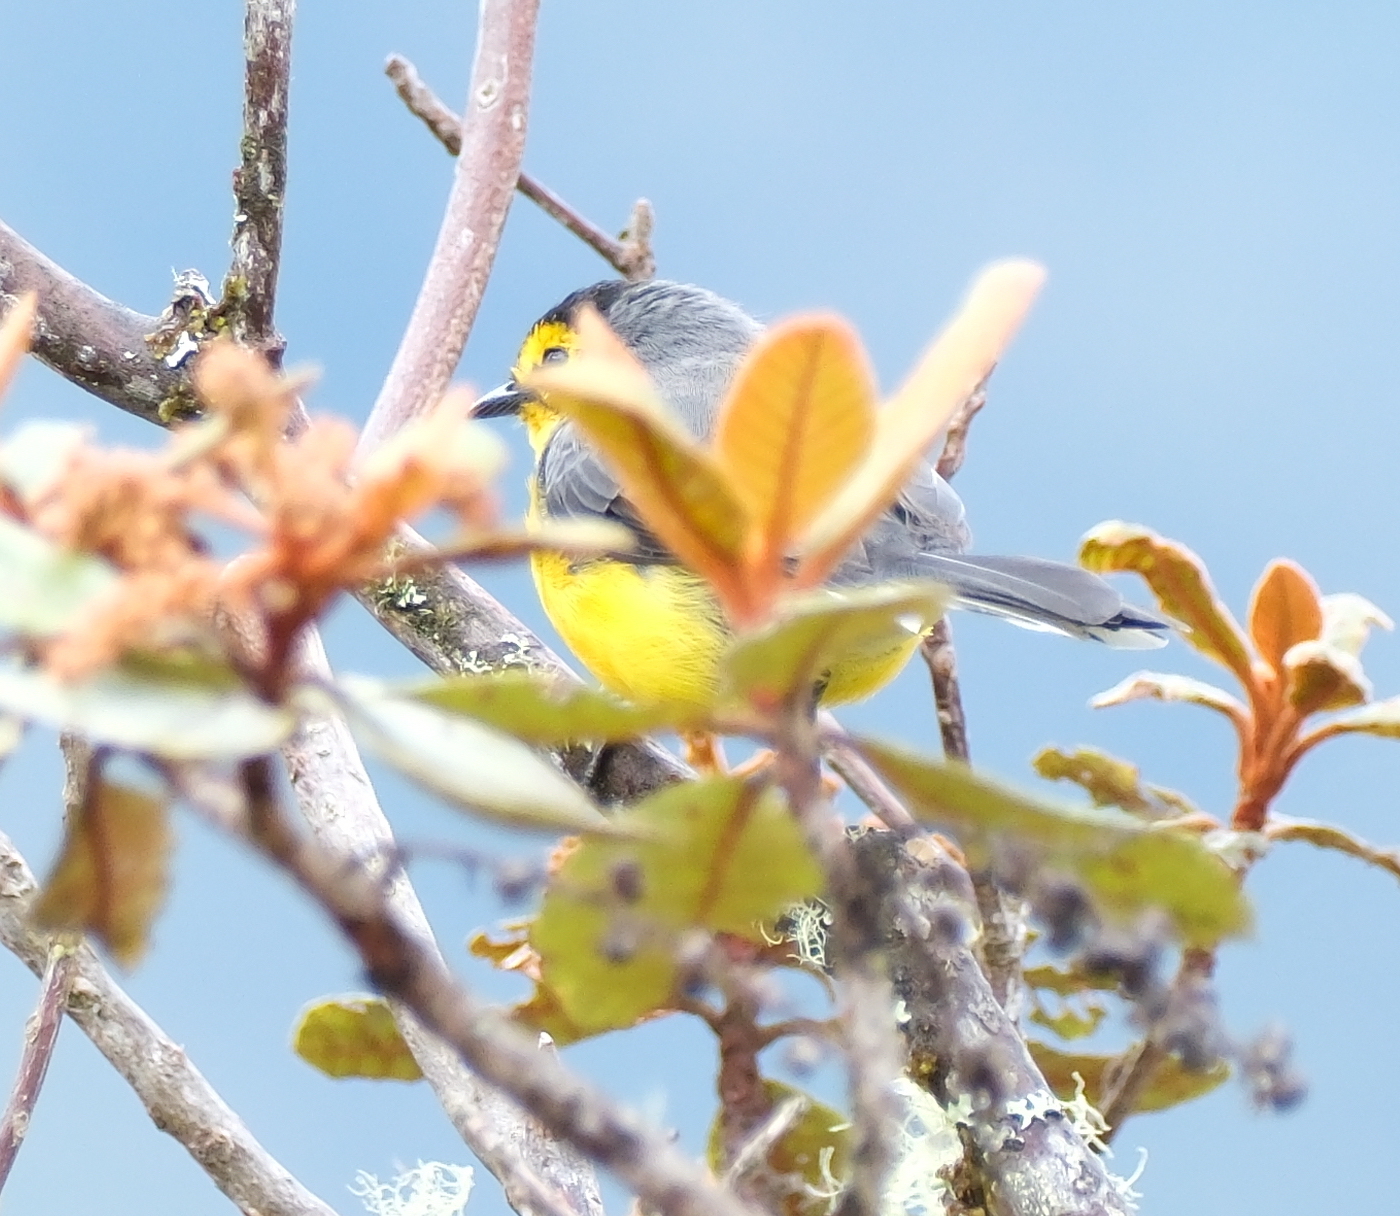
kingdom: Animalia
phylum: Chordata
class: Aves
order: Passeriformes
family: Parulidae
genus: Myioborus
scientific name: Myioborus melanocephalus
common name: Spectacled whitestart
